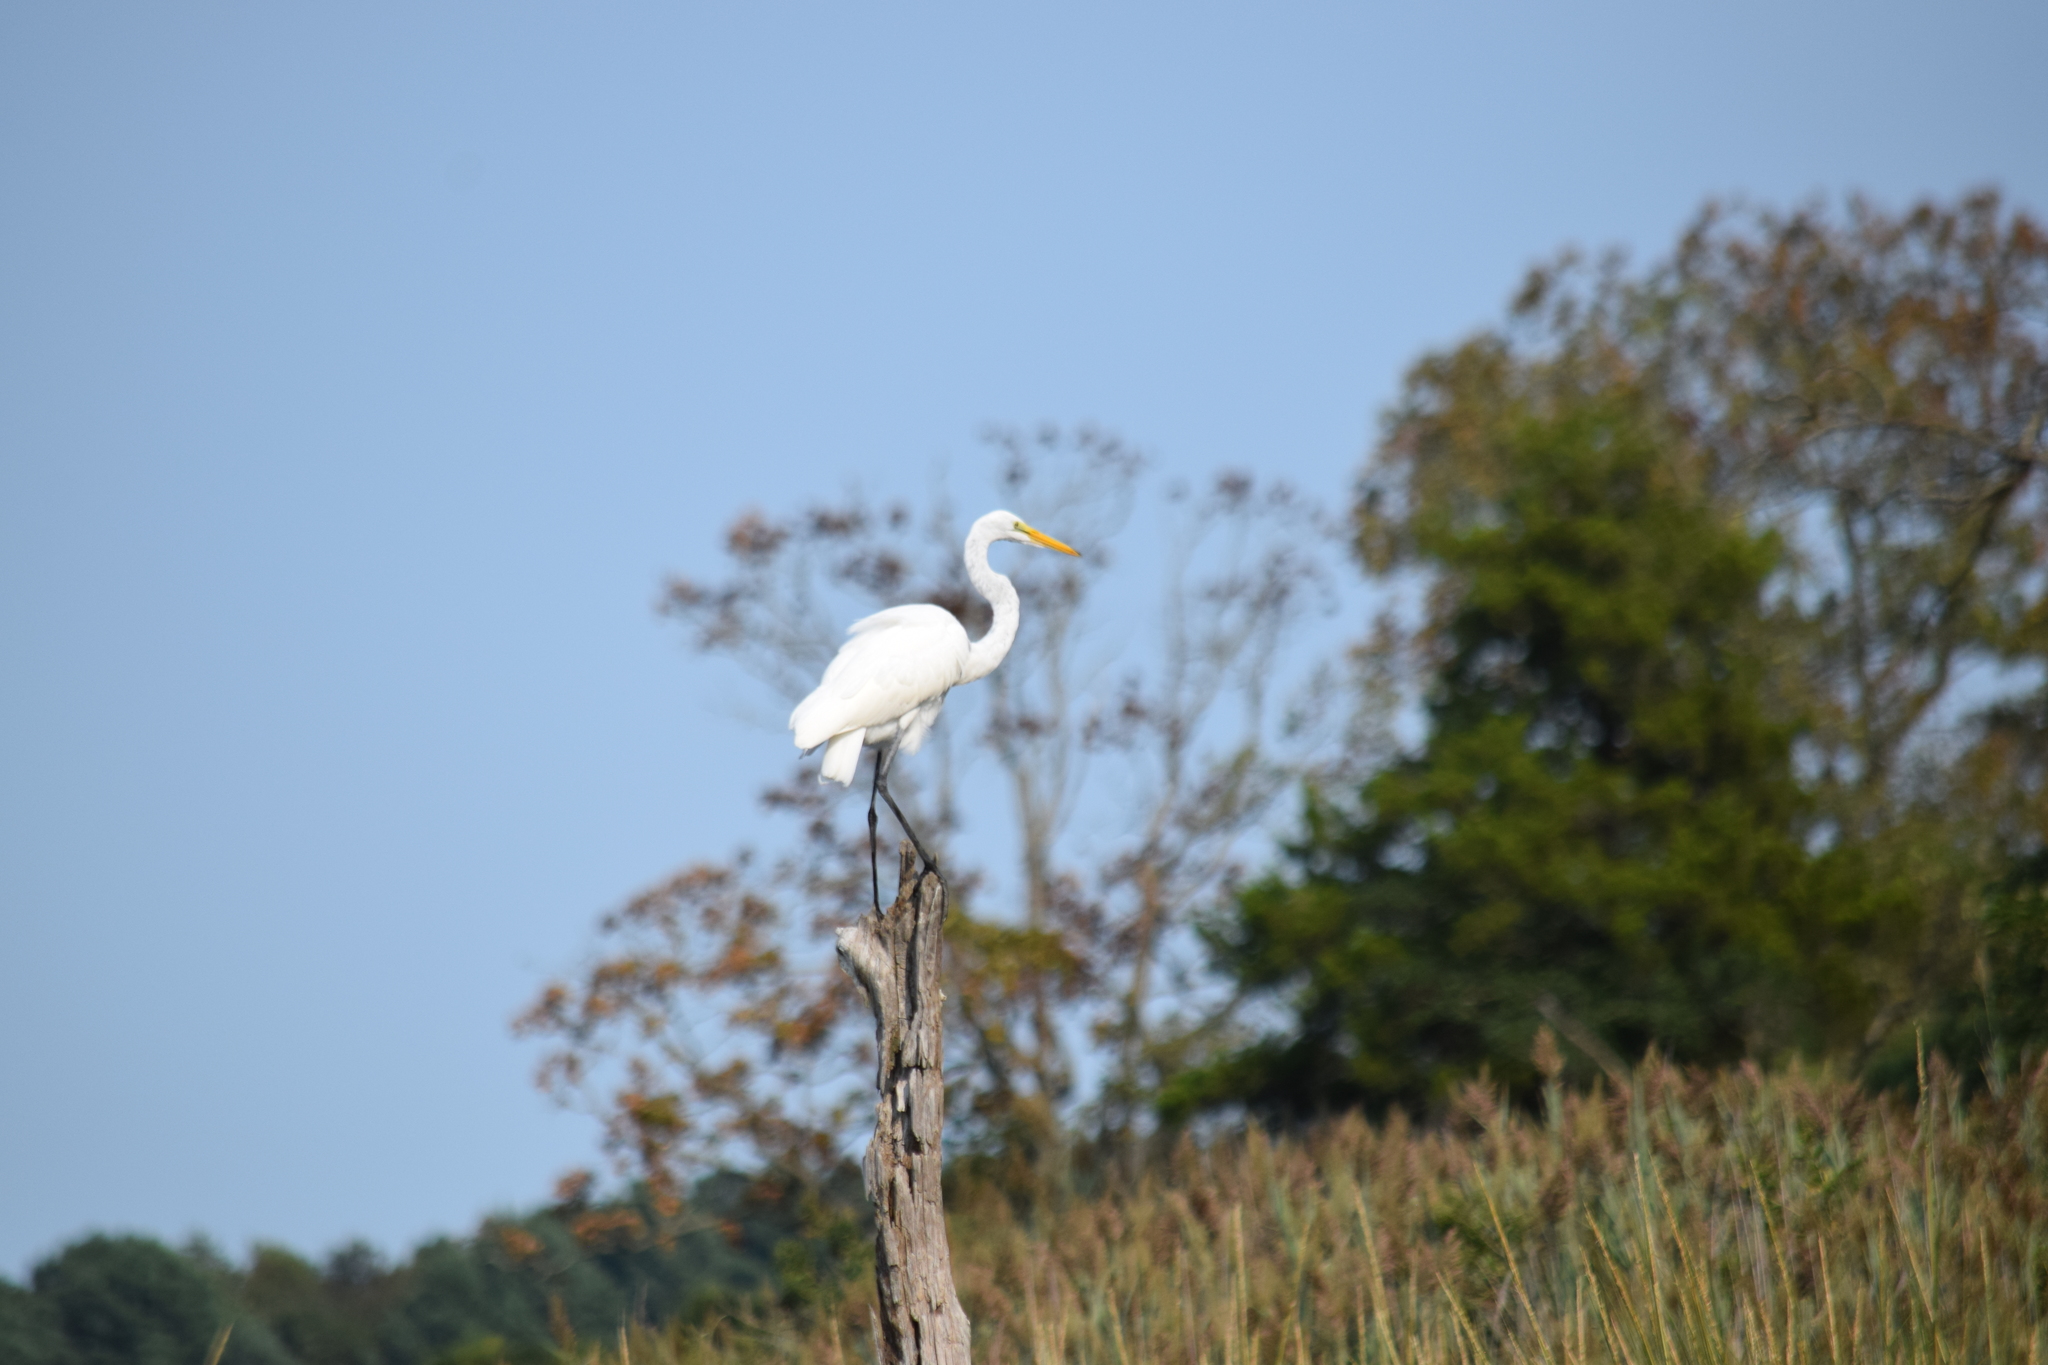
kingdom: Animalia
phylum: Chordata
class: Aves
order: Pelecaniformes
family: Ardeidae
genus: Ardea
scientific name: Ardea alba
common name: Great egret
